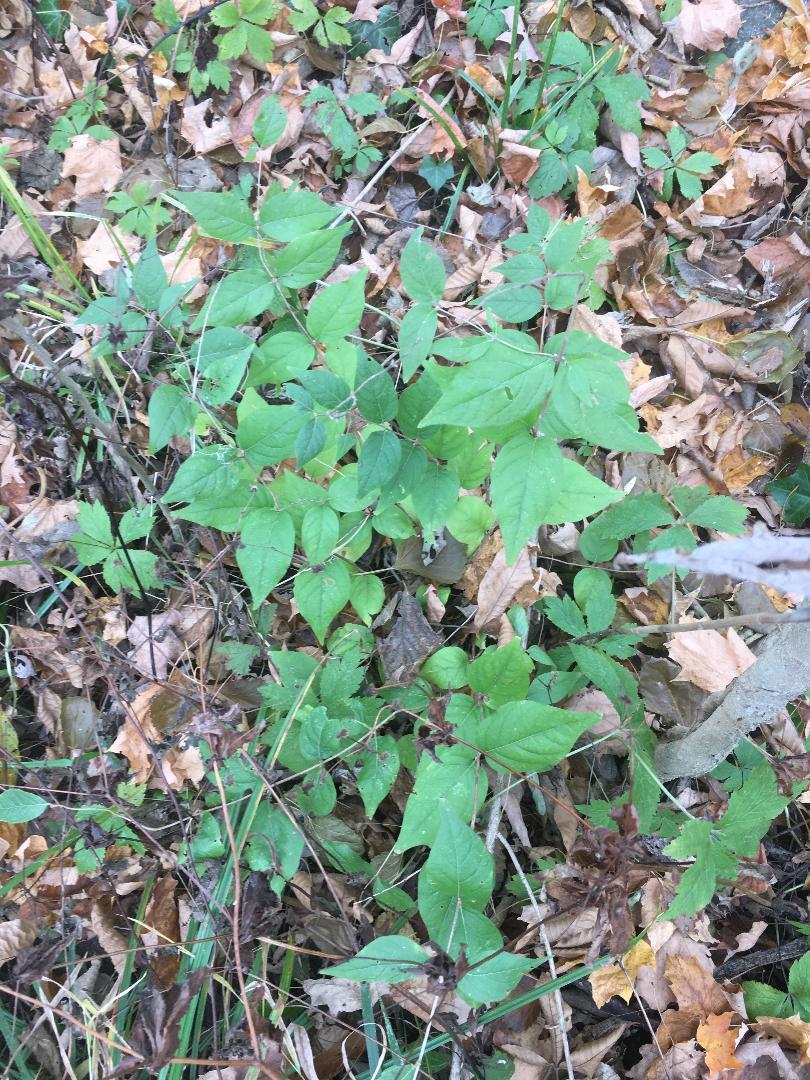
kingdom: Plantae
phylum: Tracheophyta
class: Magnoliopsida
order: Dipsacales
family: Caprifoliaceae
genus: Lonicera
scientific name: Lonicera maackii
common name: Amur honeysuckle
